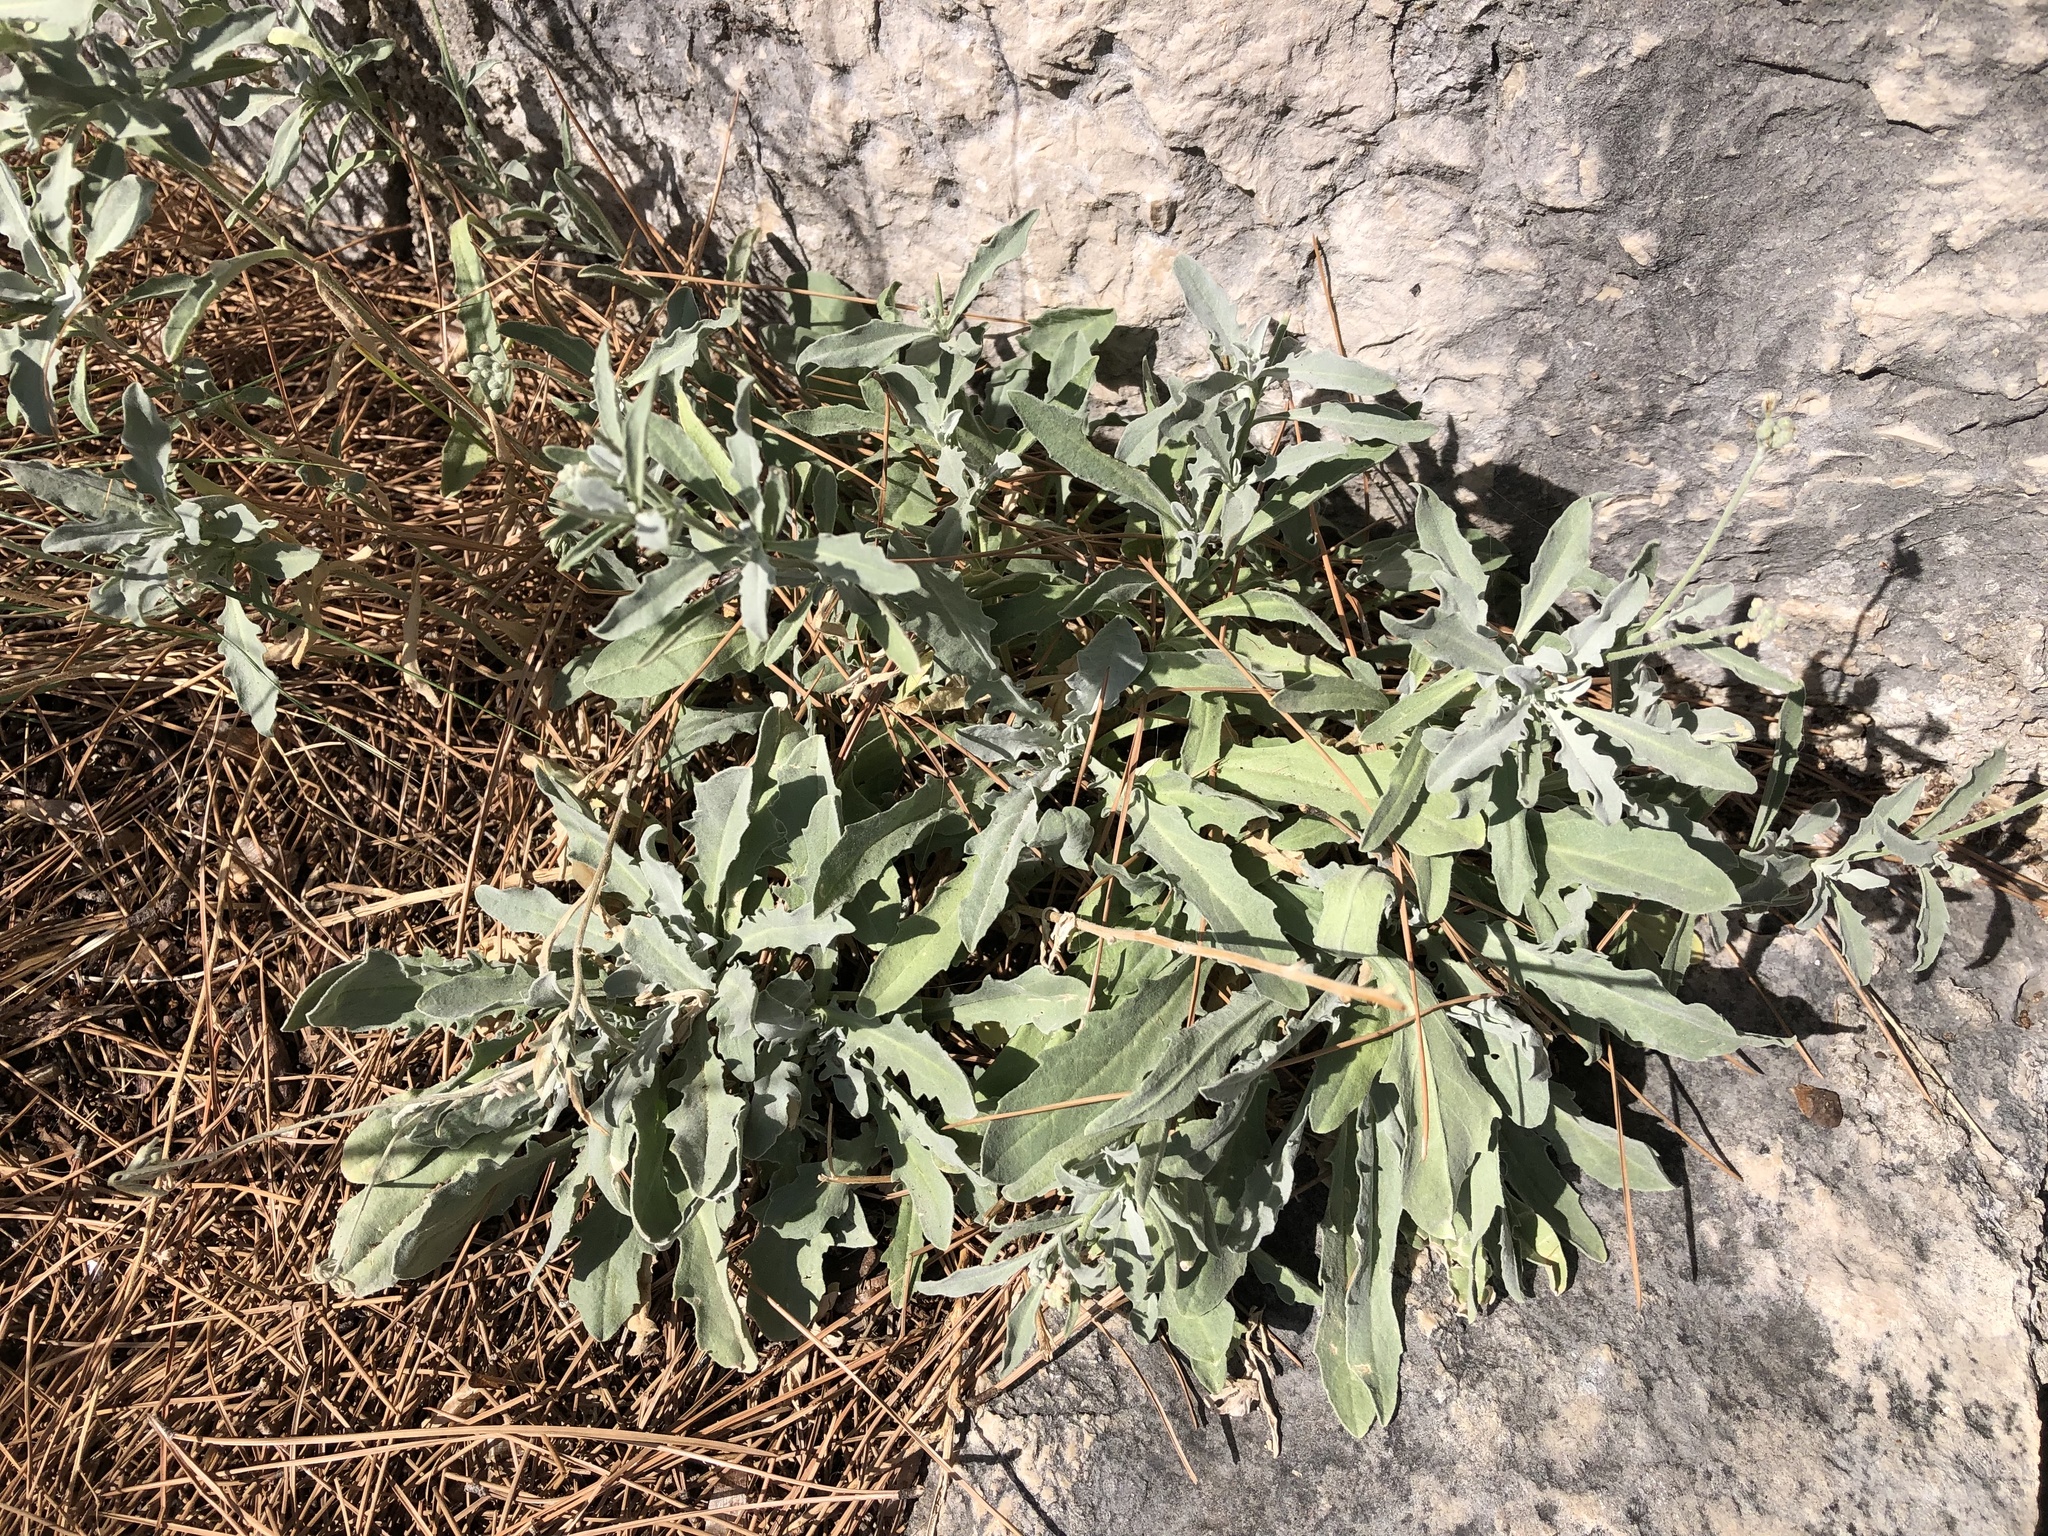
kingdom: Plantae
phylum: Tracheophyta
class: Magnoliopsida
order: Brassicales
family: Brassicaceae
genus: Aurinia
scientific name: Aurinia sinuata
